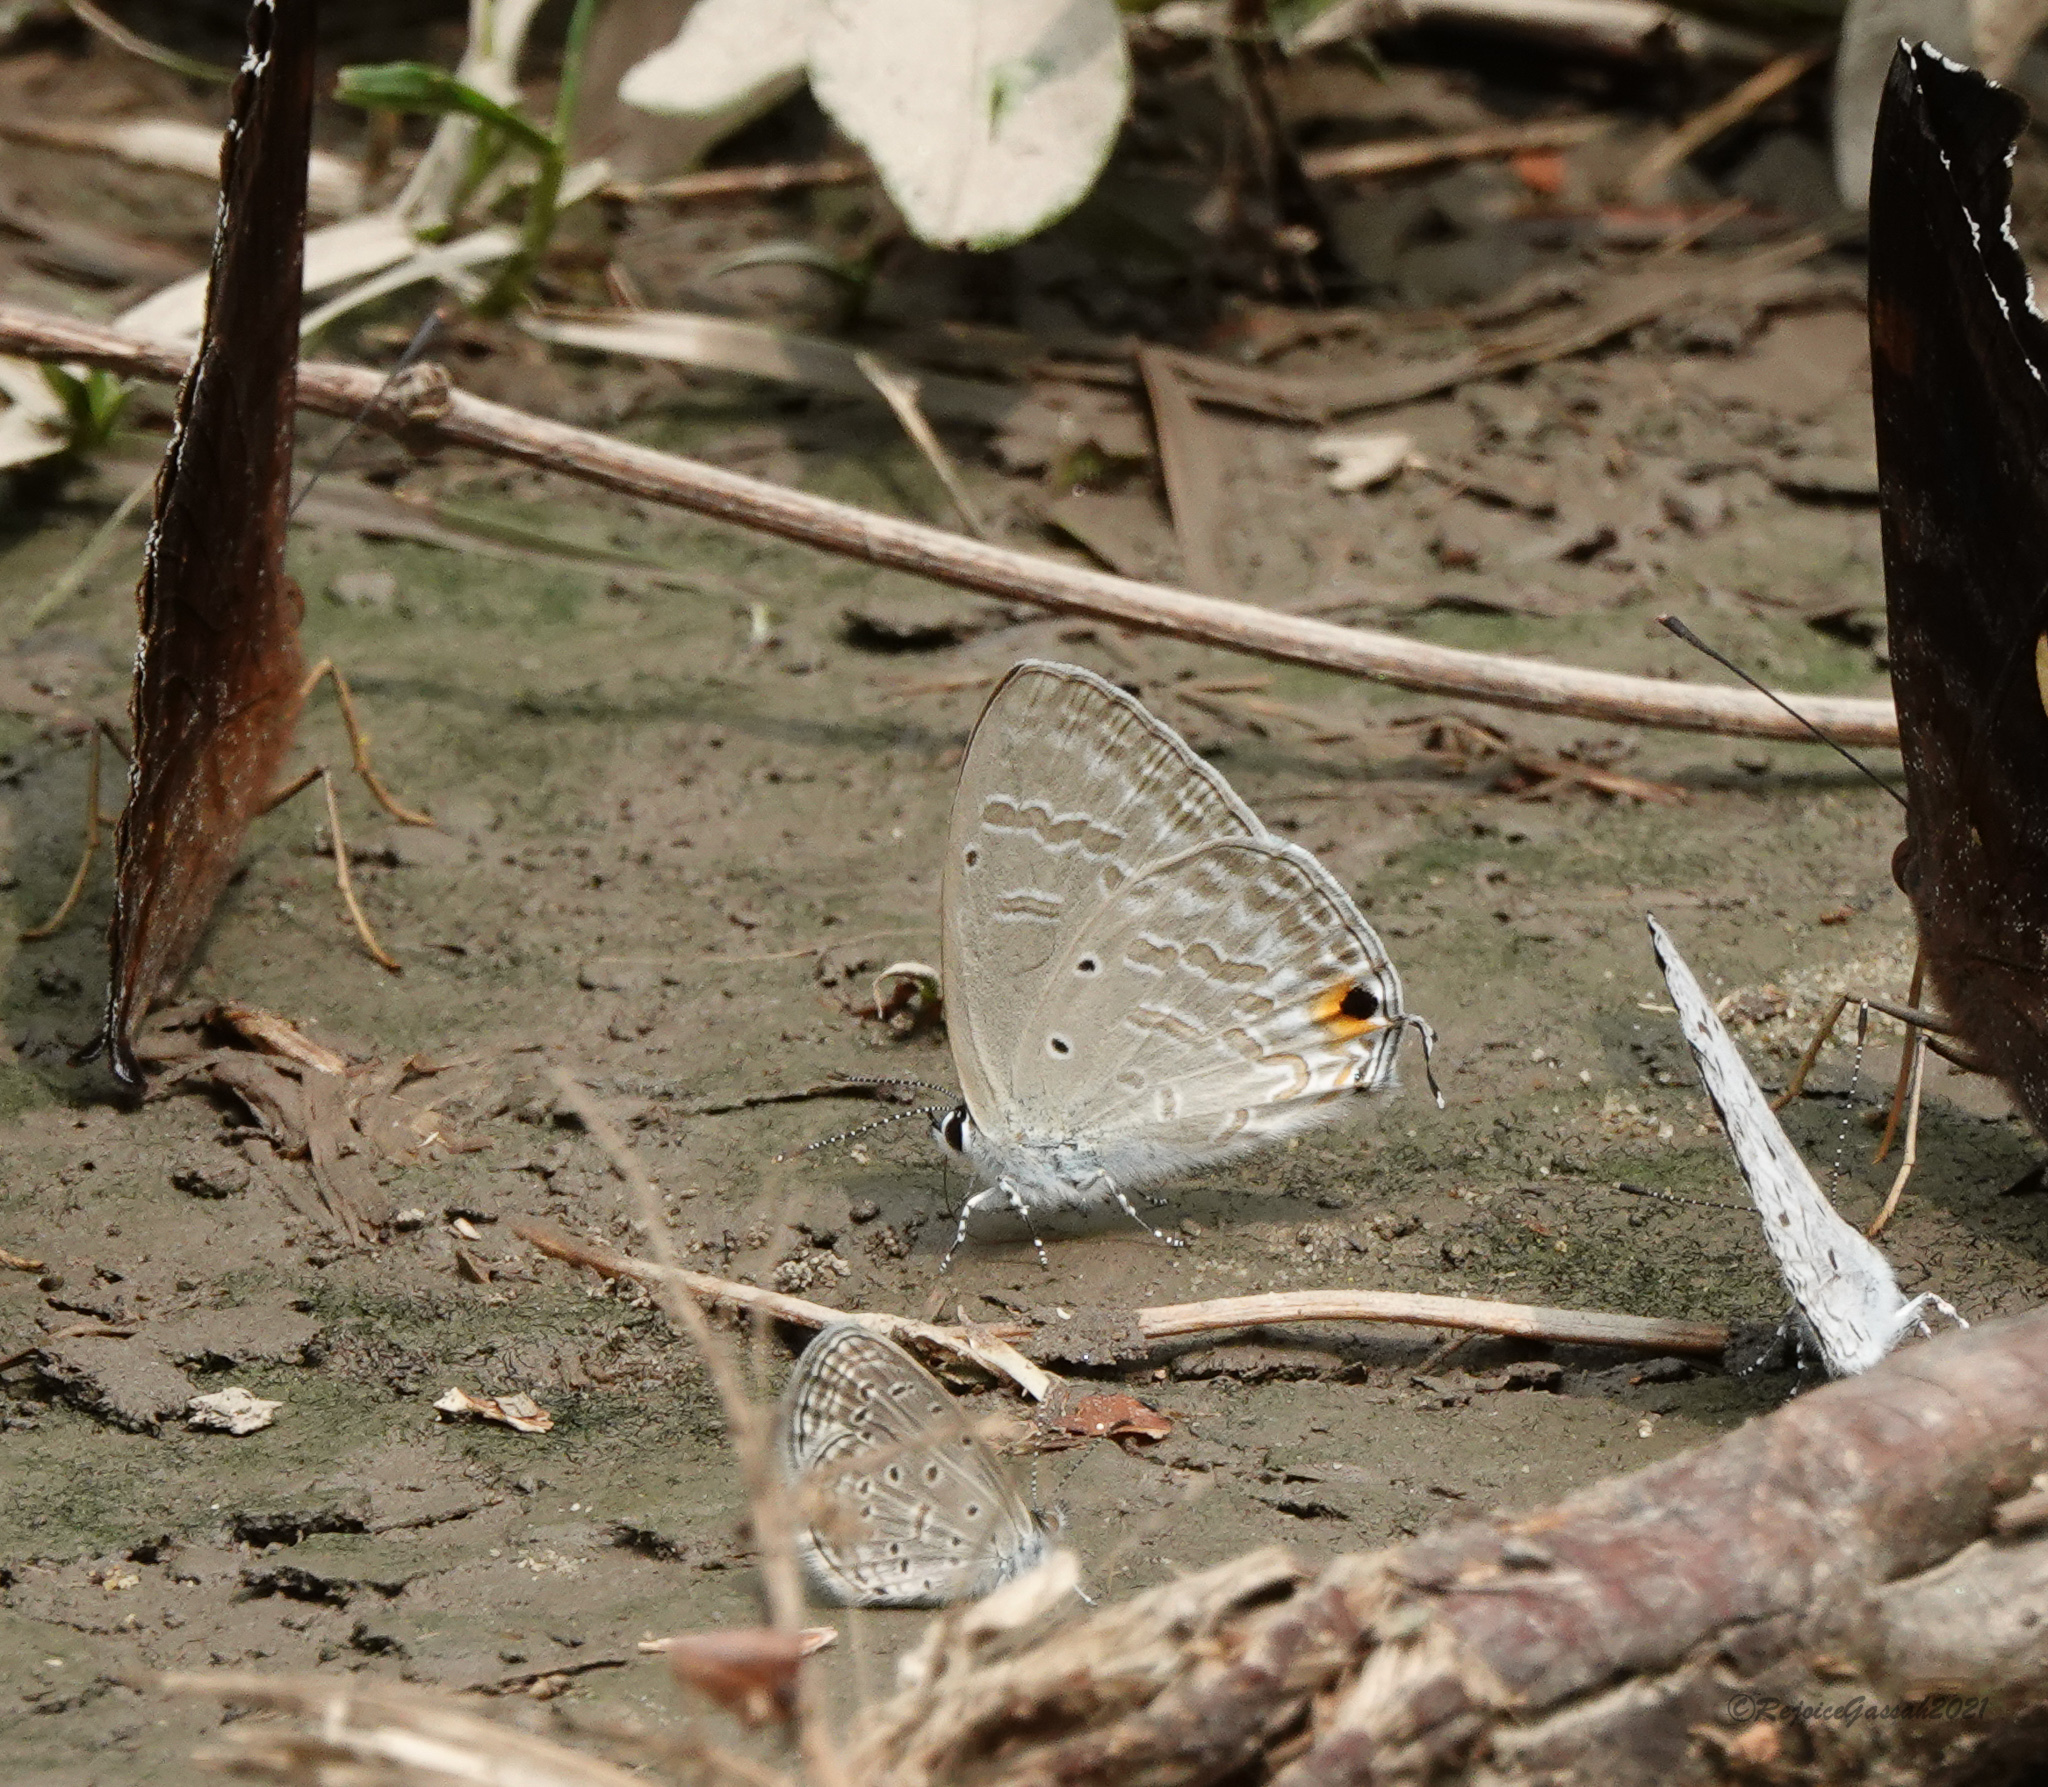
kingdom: Animalia
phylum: Arthropoda
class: Insecta
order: Lepidoptera
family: Lycaenidae
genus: Catochrysops
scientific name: Catochrysops strabo
